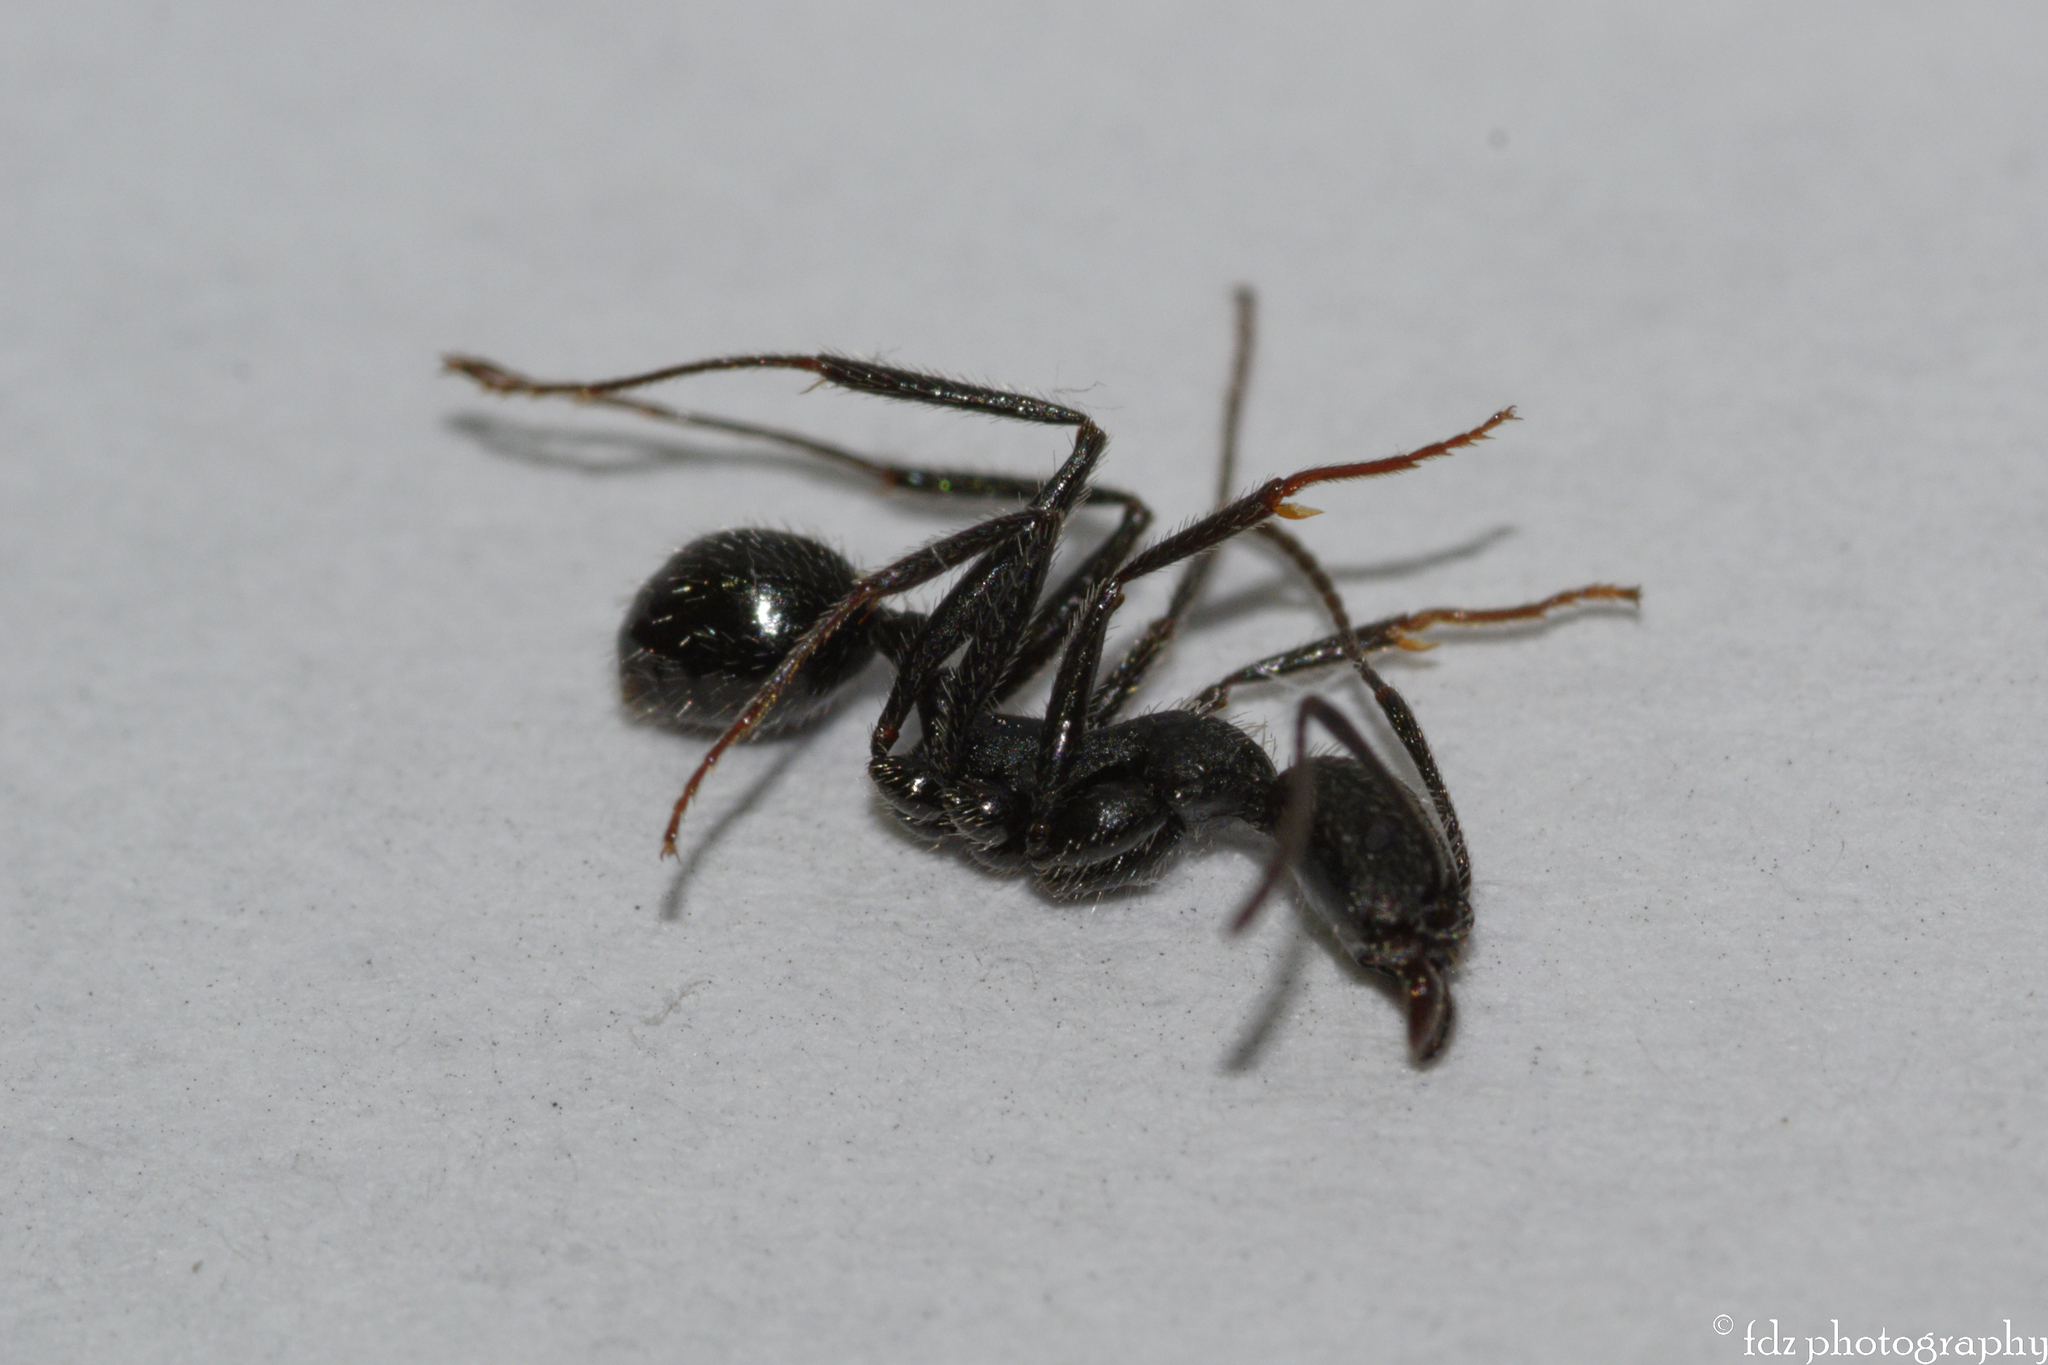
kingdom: Animalia
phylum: Arthropoda
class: Insecta
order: Hymenoptera
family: Formicidae
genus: Aphaenogaster
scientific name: Aphaenogaster senilis
